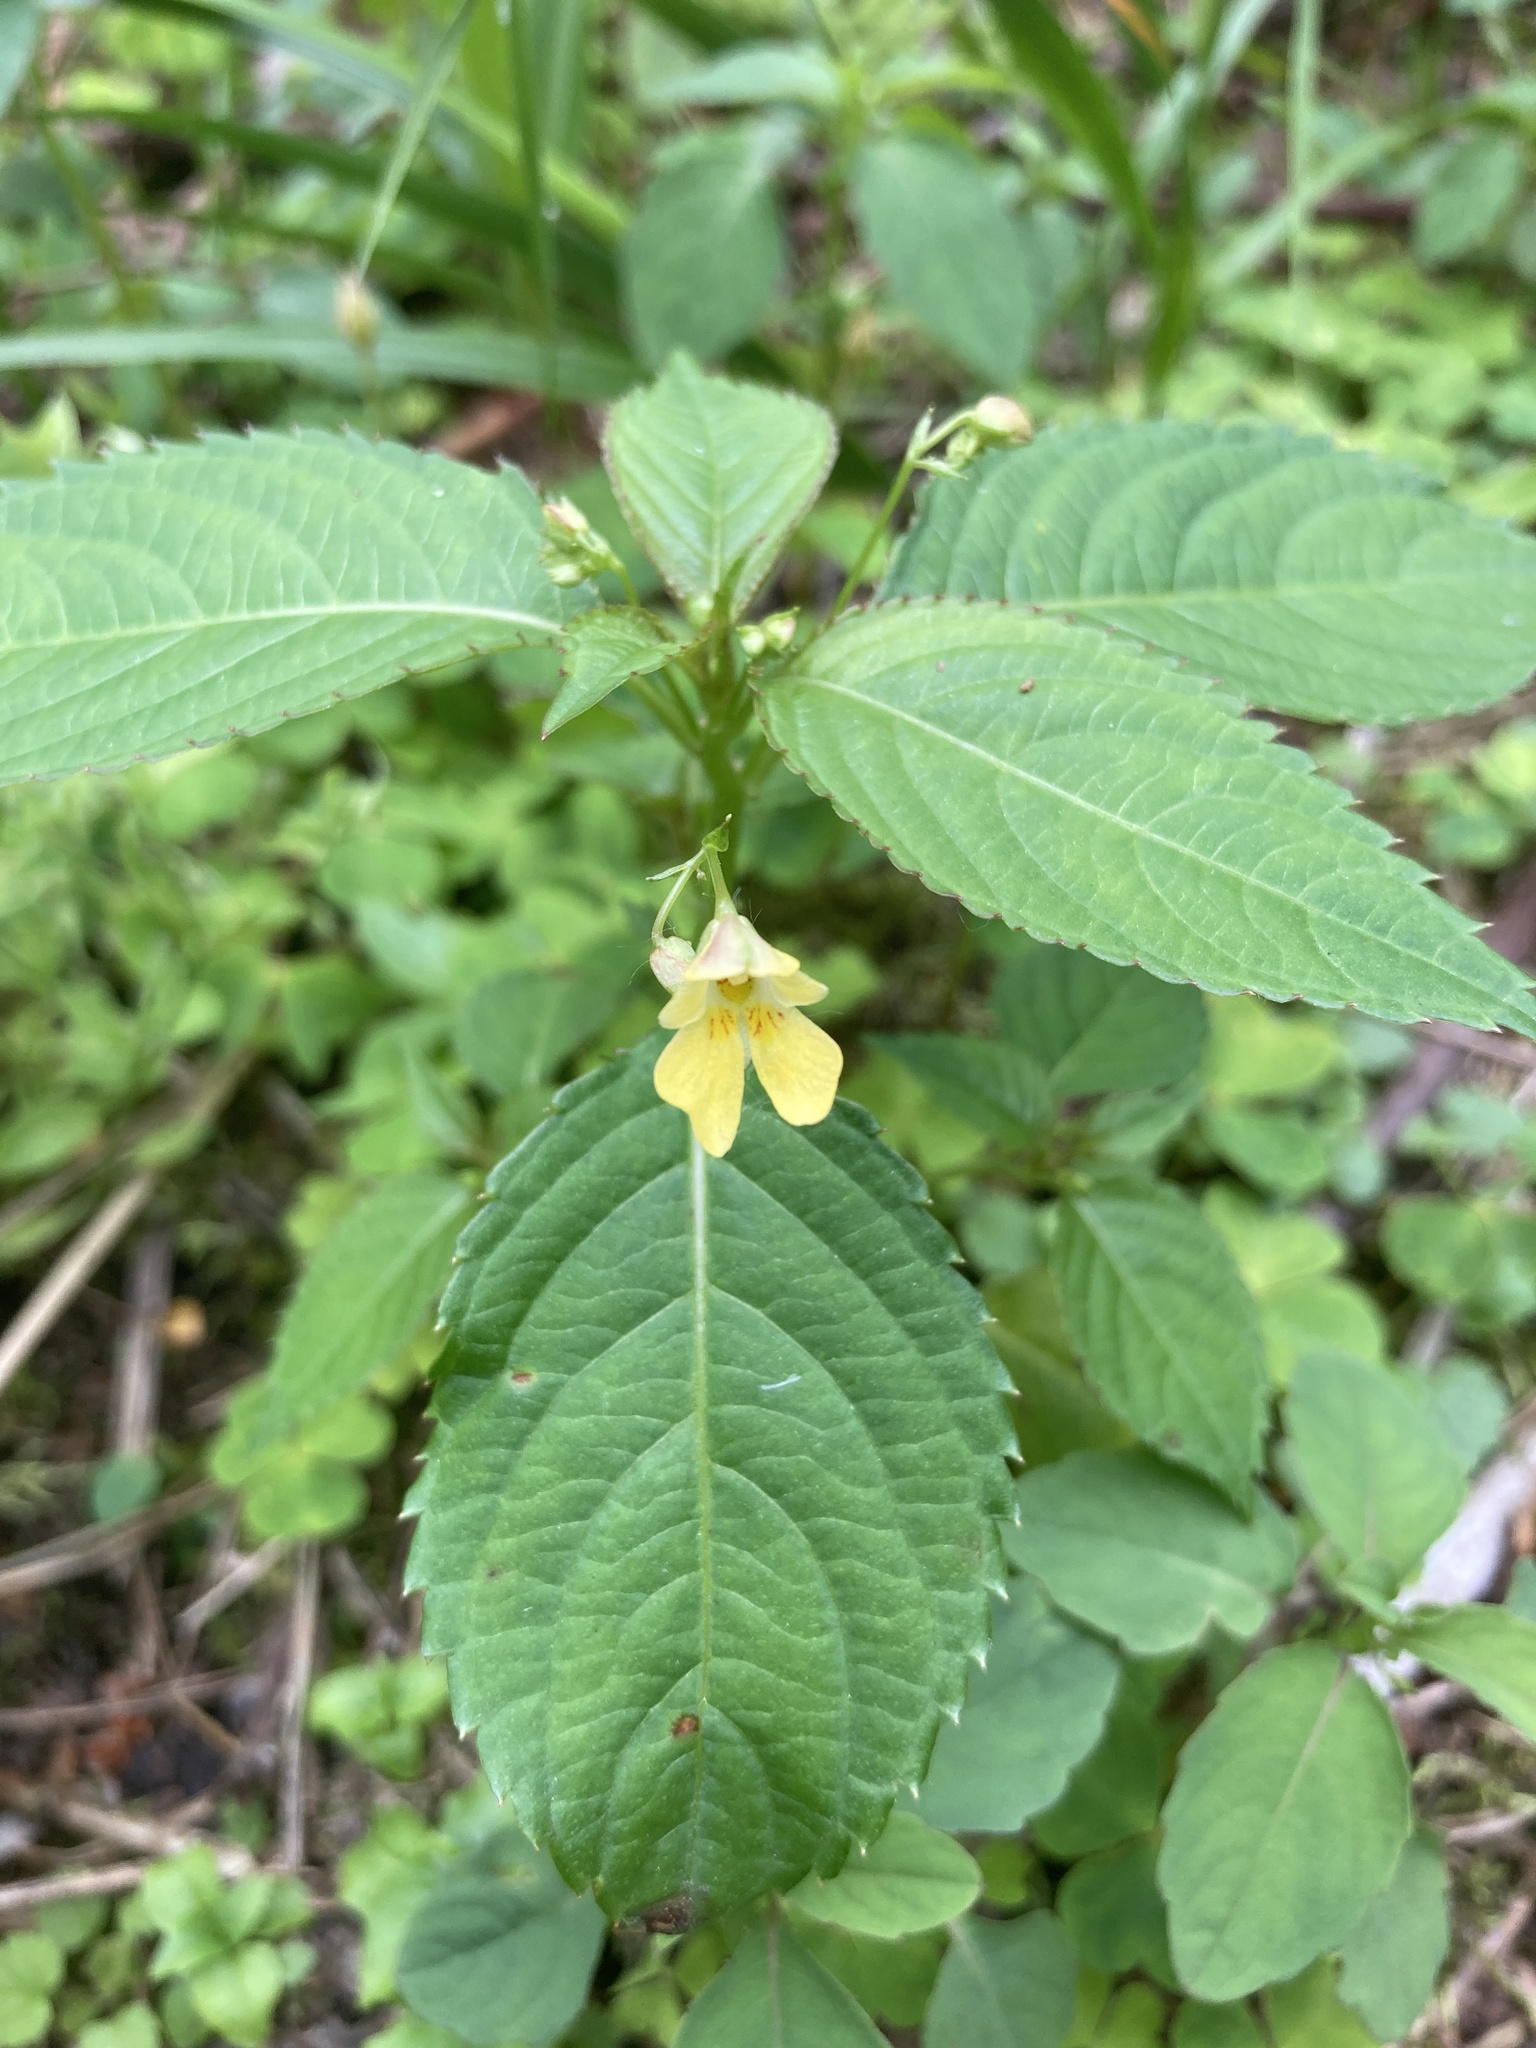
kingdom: Plantae
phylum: Tracheophyta
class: Magnoliopsida
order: Ericales
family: Balsaminaceae
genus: Impatiens
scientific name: Impatiens parviflora
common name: Small balsam
